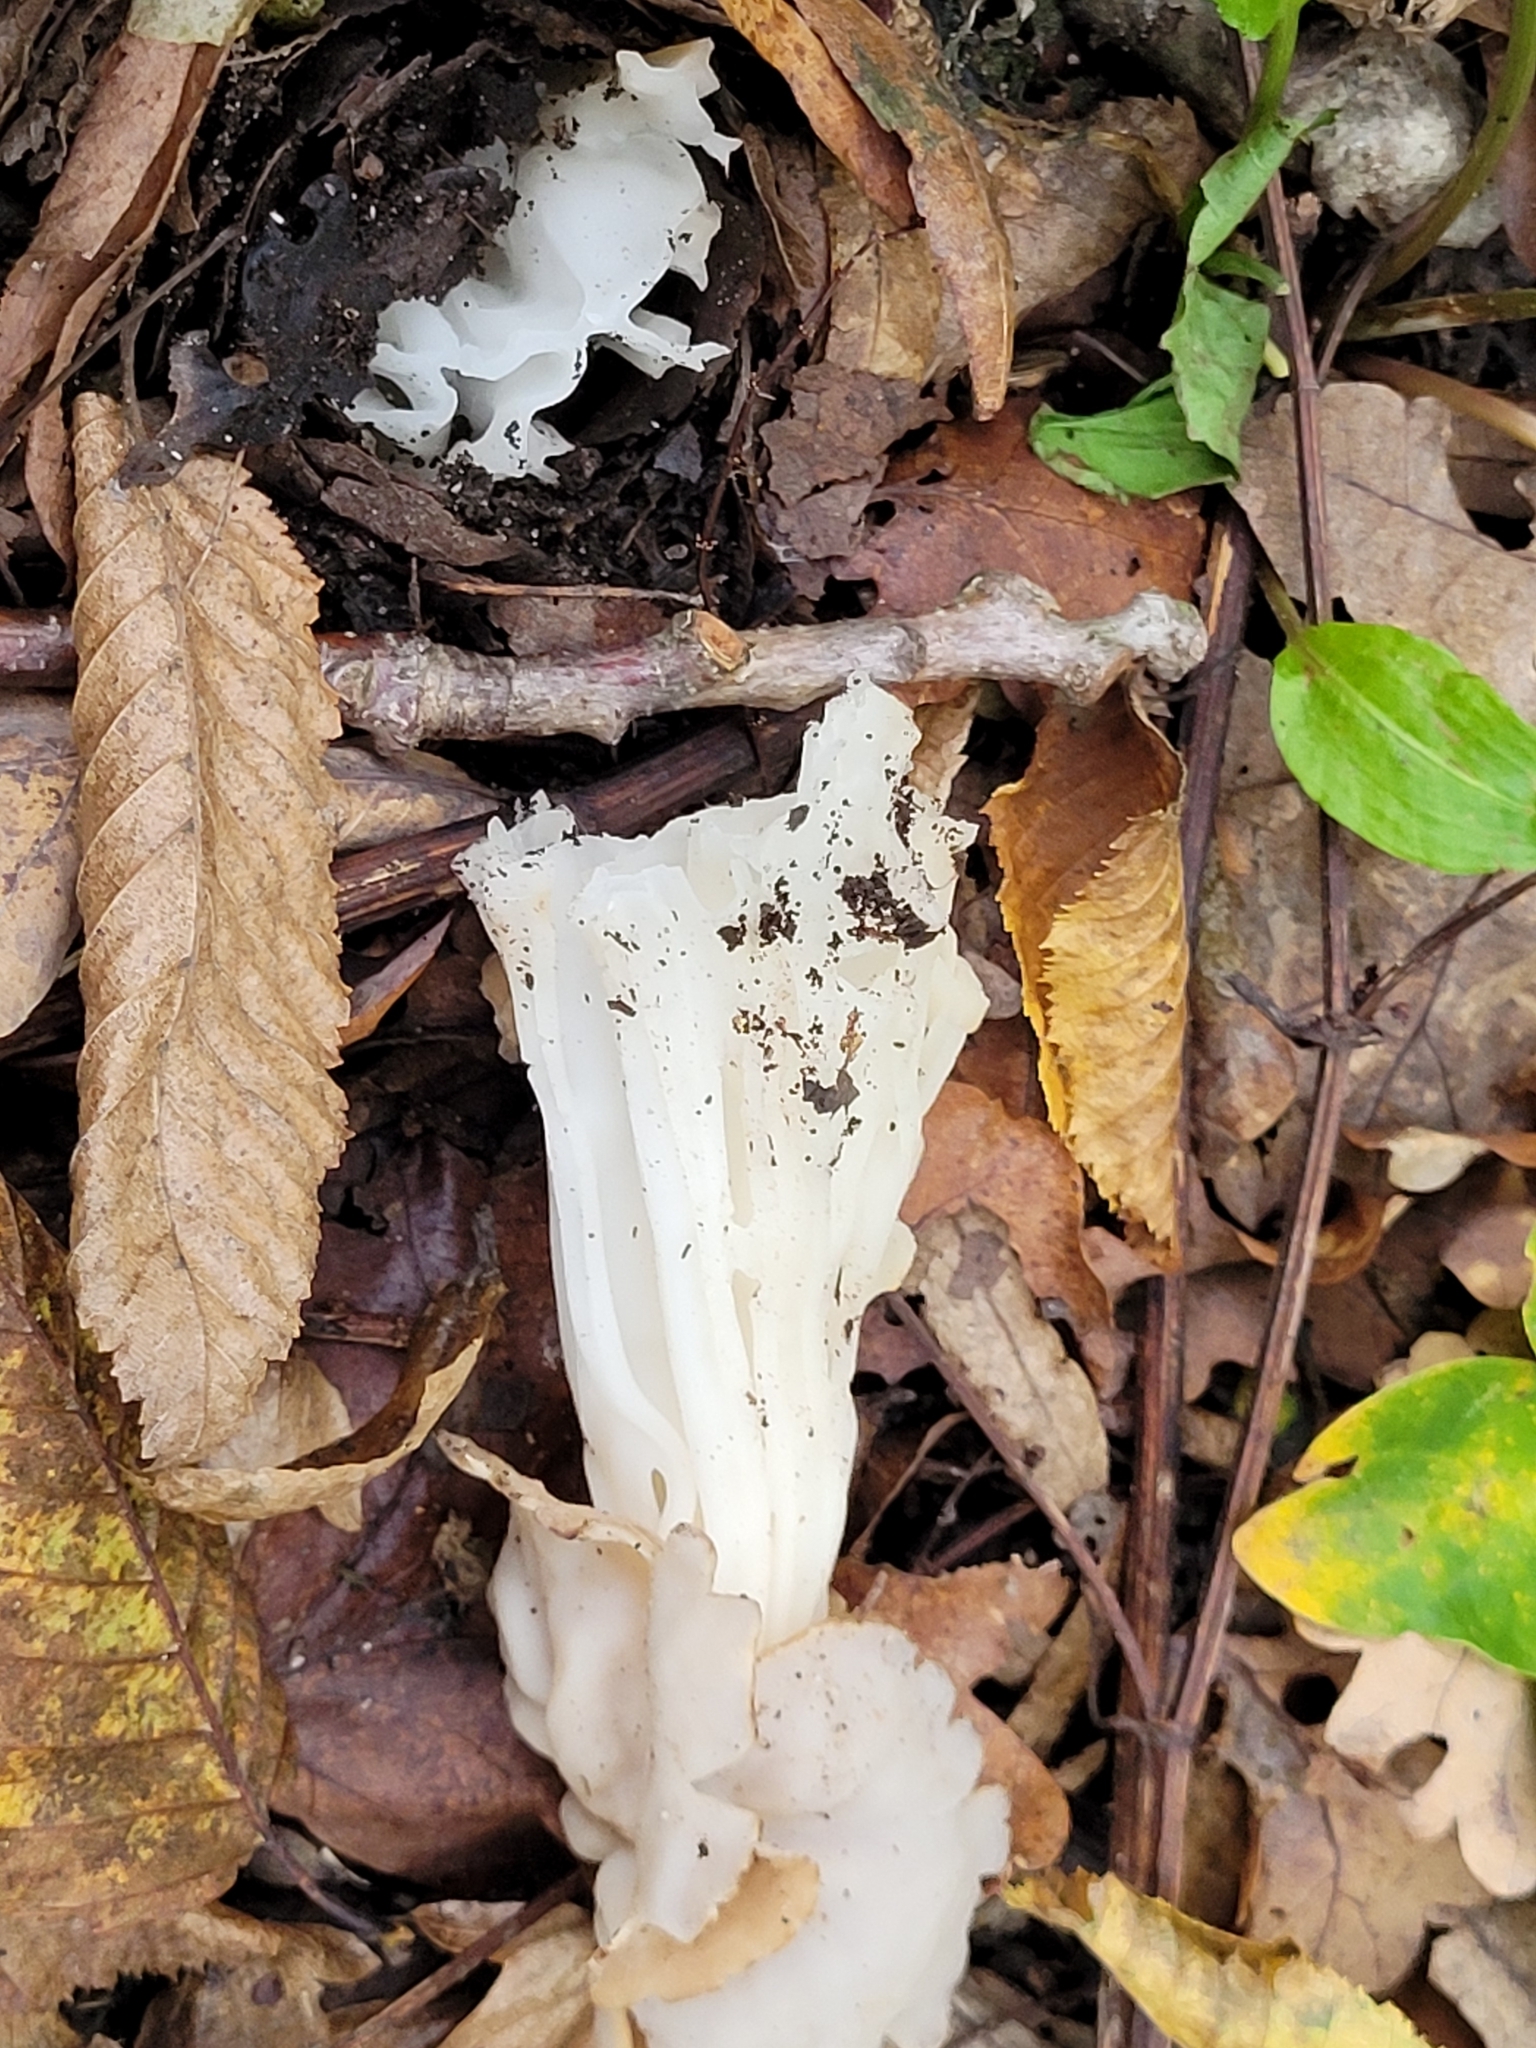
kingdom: Fungi
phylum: Ascomycota
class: Pezizomycetes
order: Pezizales
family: Helvellaceae
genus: Helvella
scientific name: Helvella crispa
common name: White saddle
